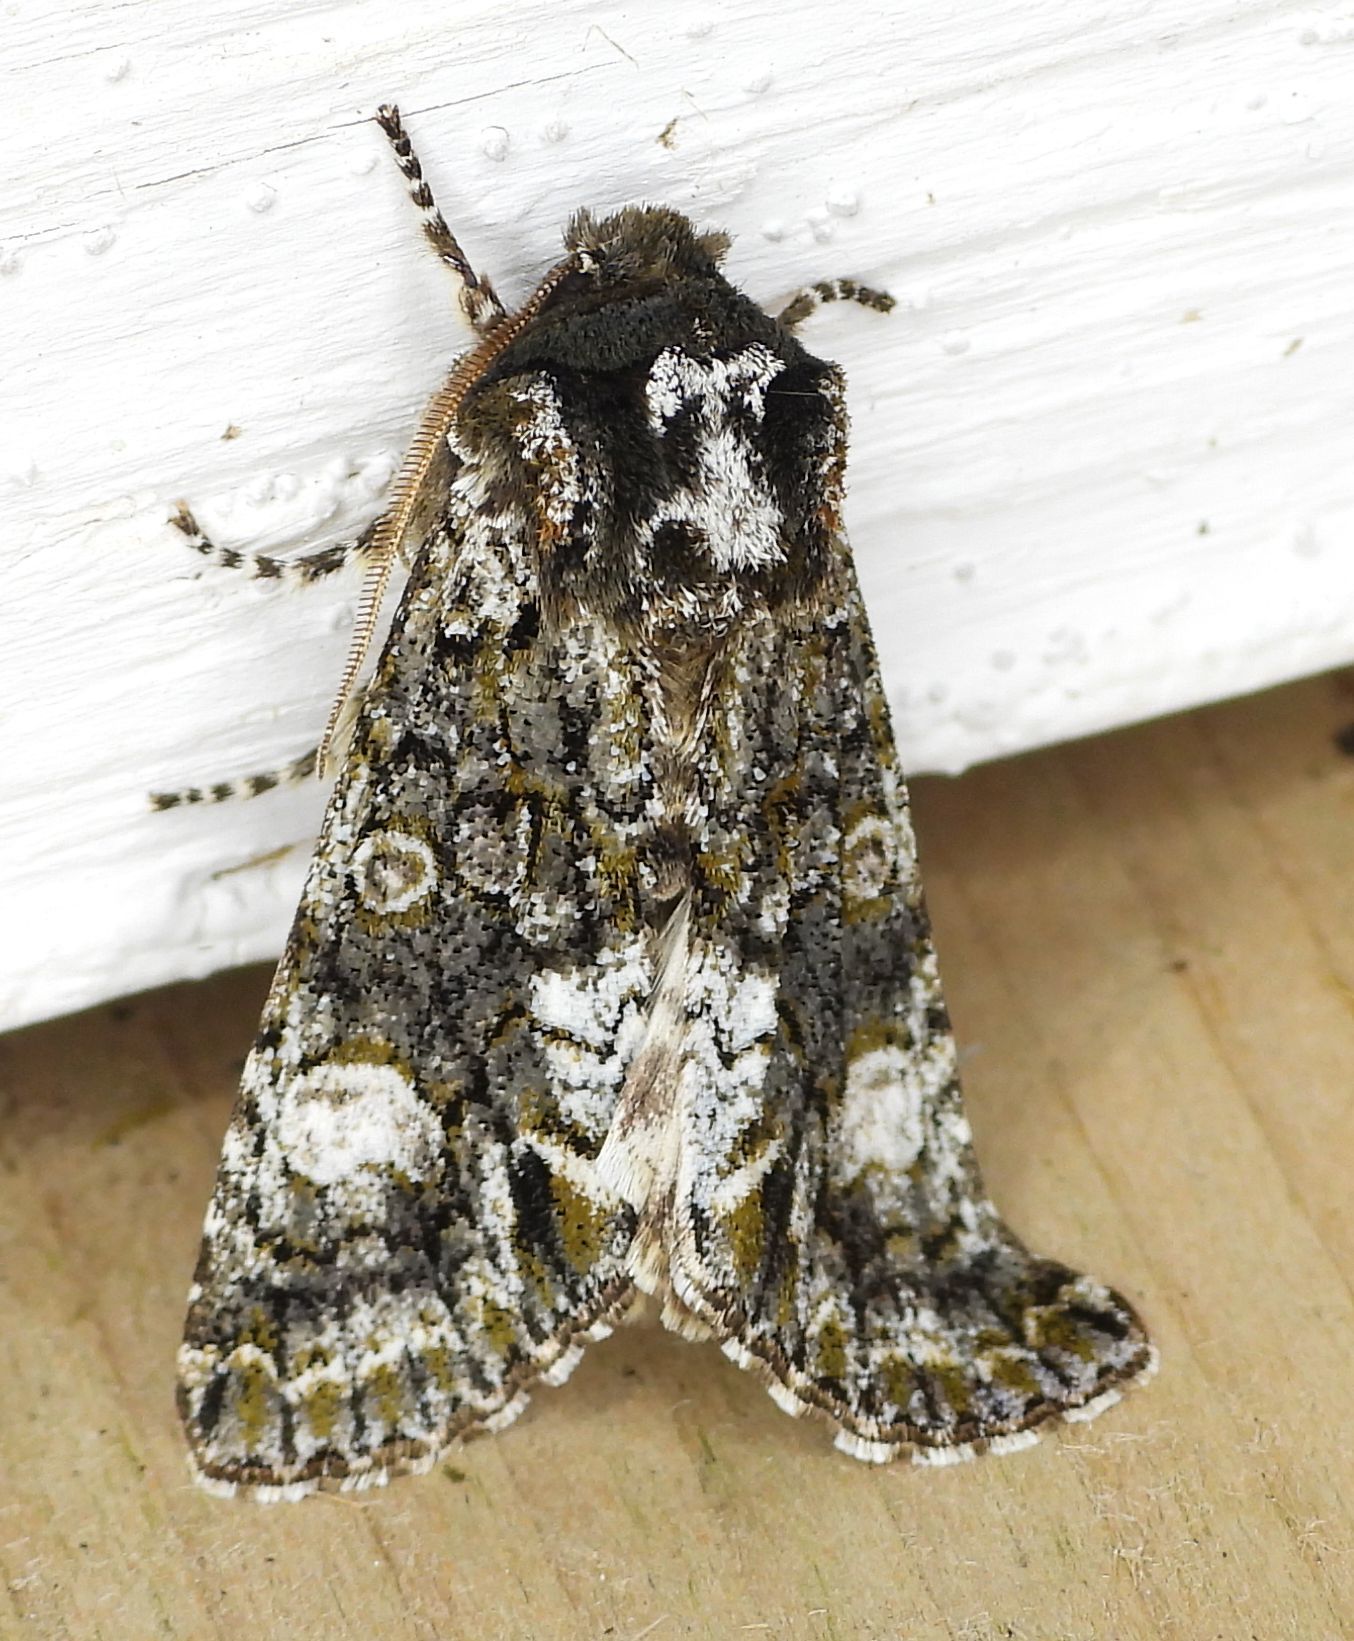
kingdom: Animalia
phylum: Arthropoda
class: Insecta
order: Lepidoptera
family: Noctuidae
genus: Psaphida
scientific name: Psaphida grotei
